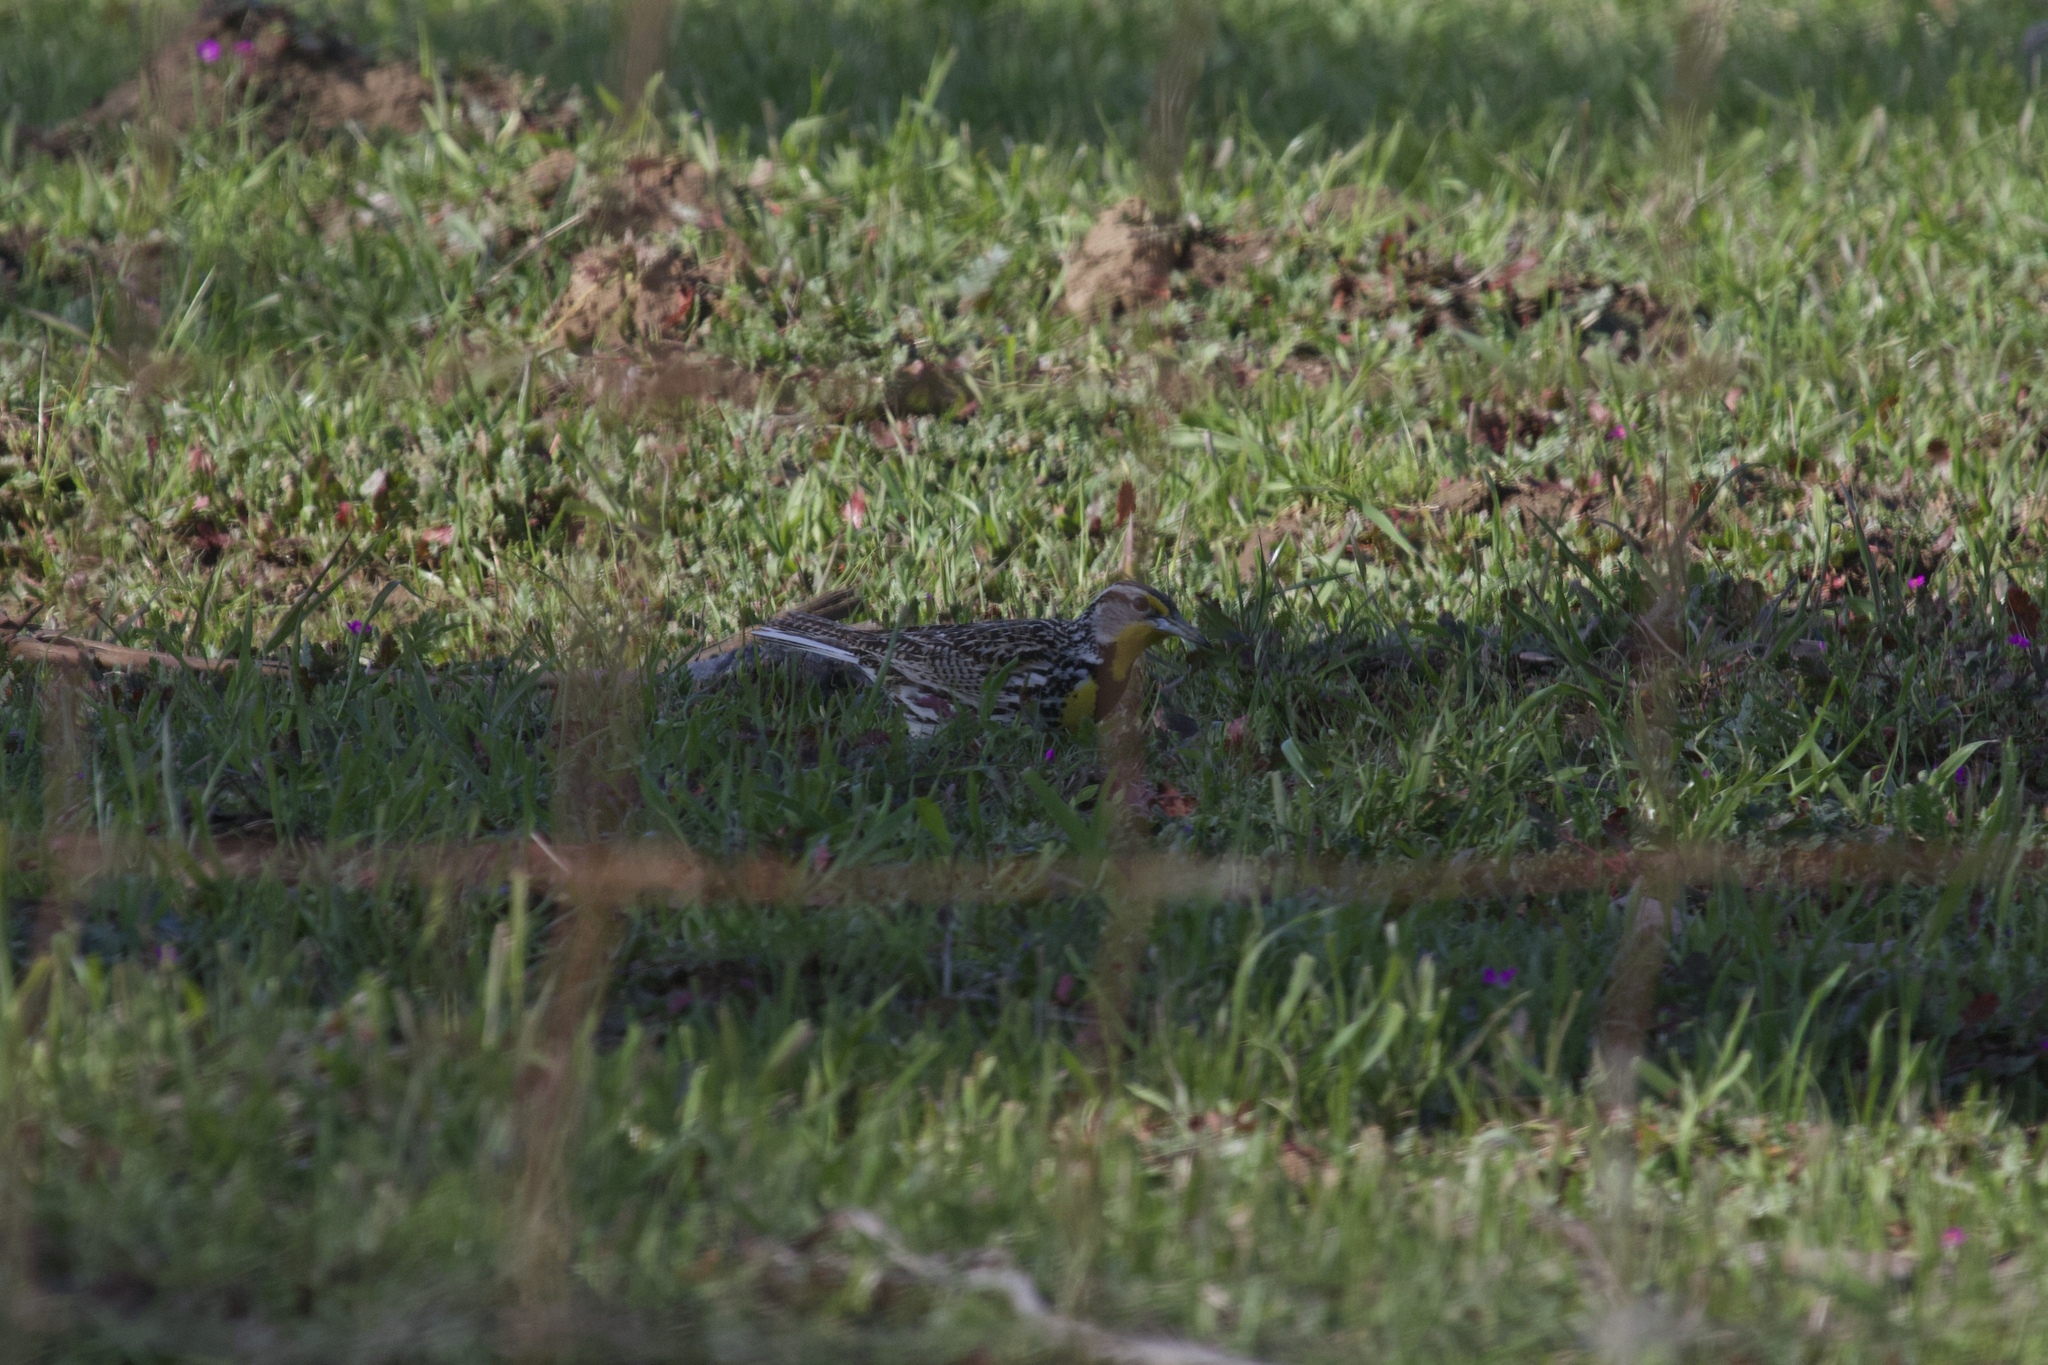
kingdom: Animalia
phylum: Chordata
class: Aves
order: Passeriformes
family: Icteridae
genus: Sturnella
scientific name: Sturnella neglecta
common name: Western meadowlark
